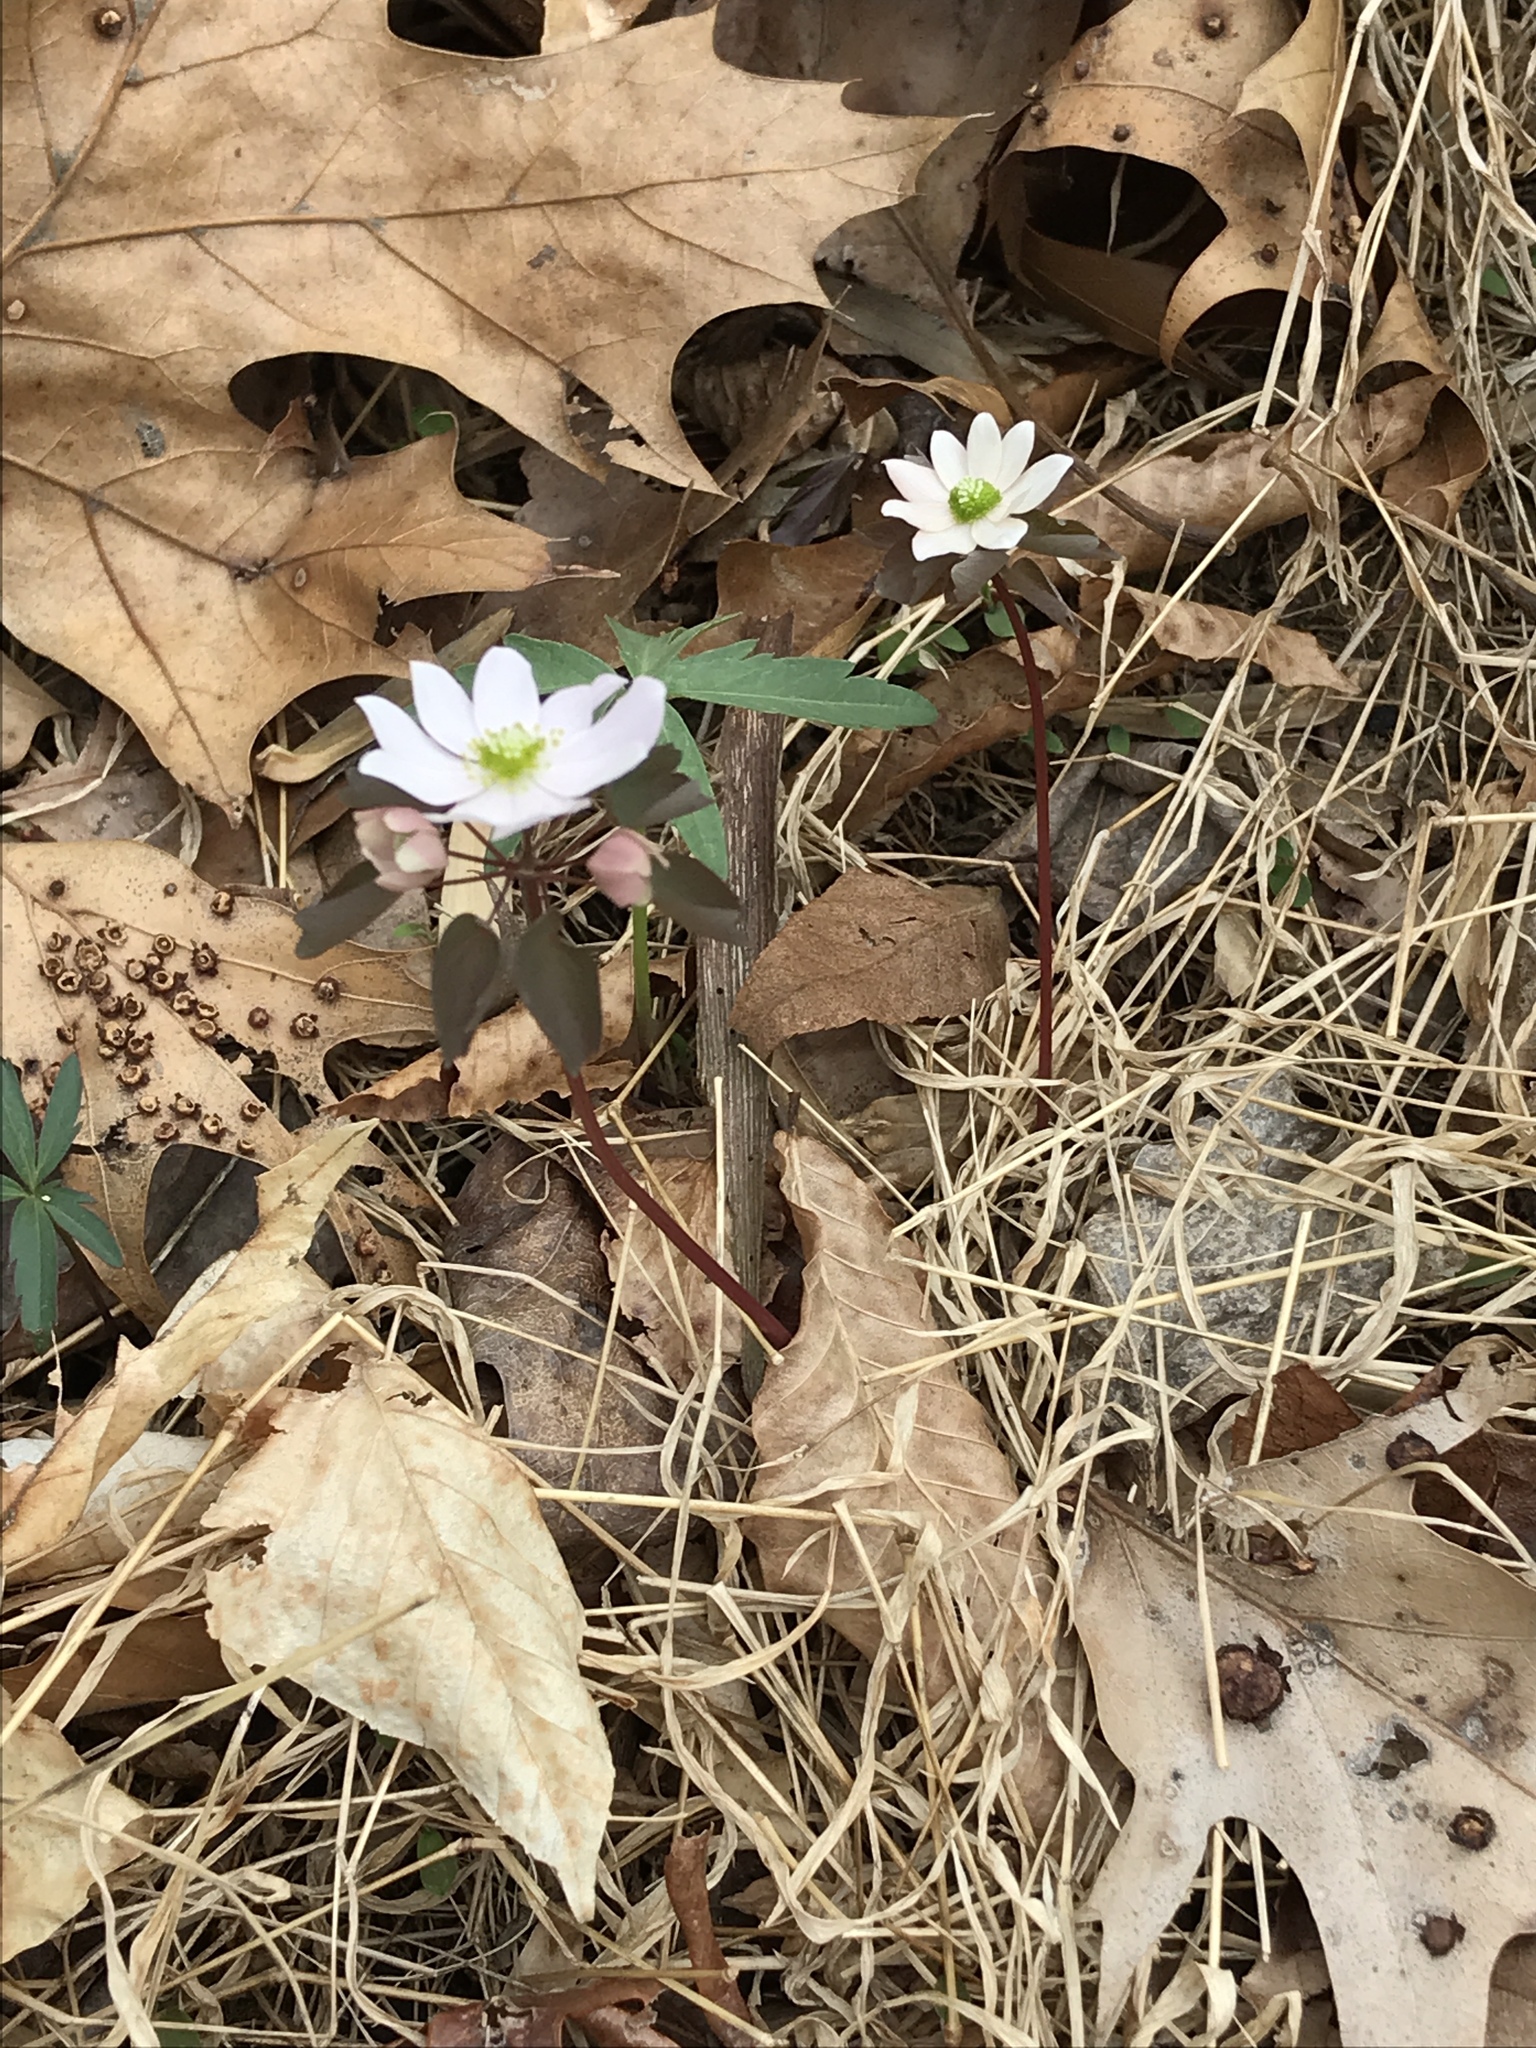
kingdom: Plantae
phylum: Tracheophyta
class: Magnoliopsida
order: Ranunculales
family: Ranunculaceae
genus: Thalictrum
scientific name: Thalictrum thalictroides
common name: Rue-anemone
